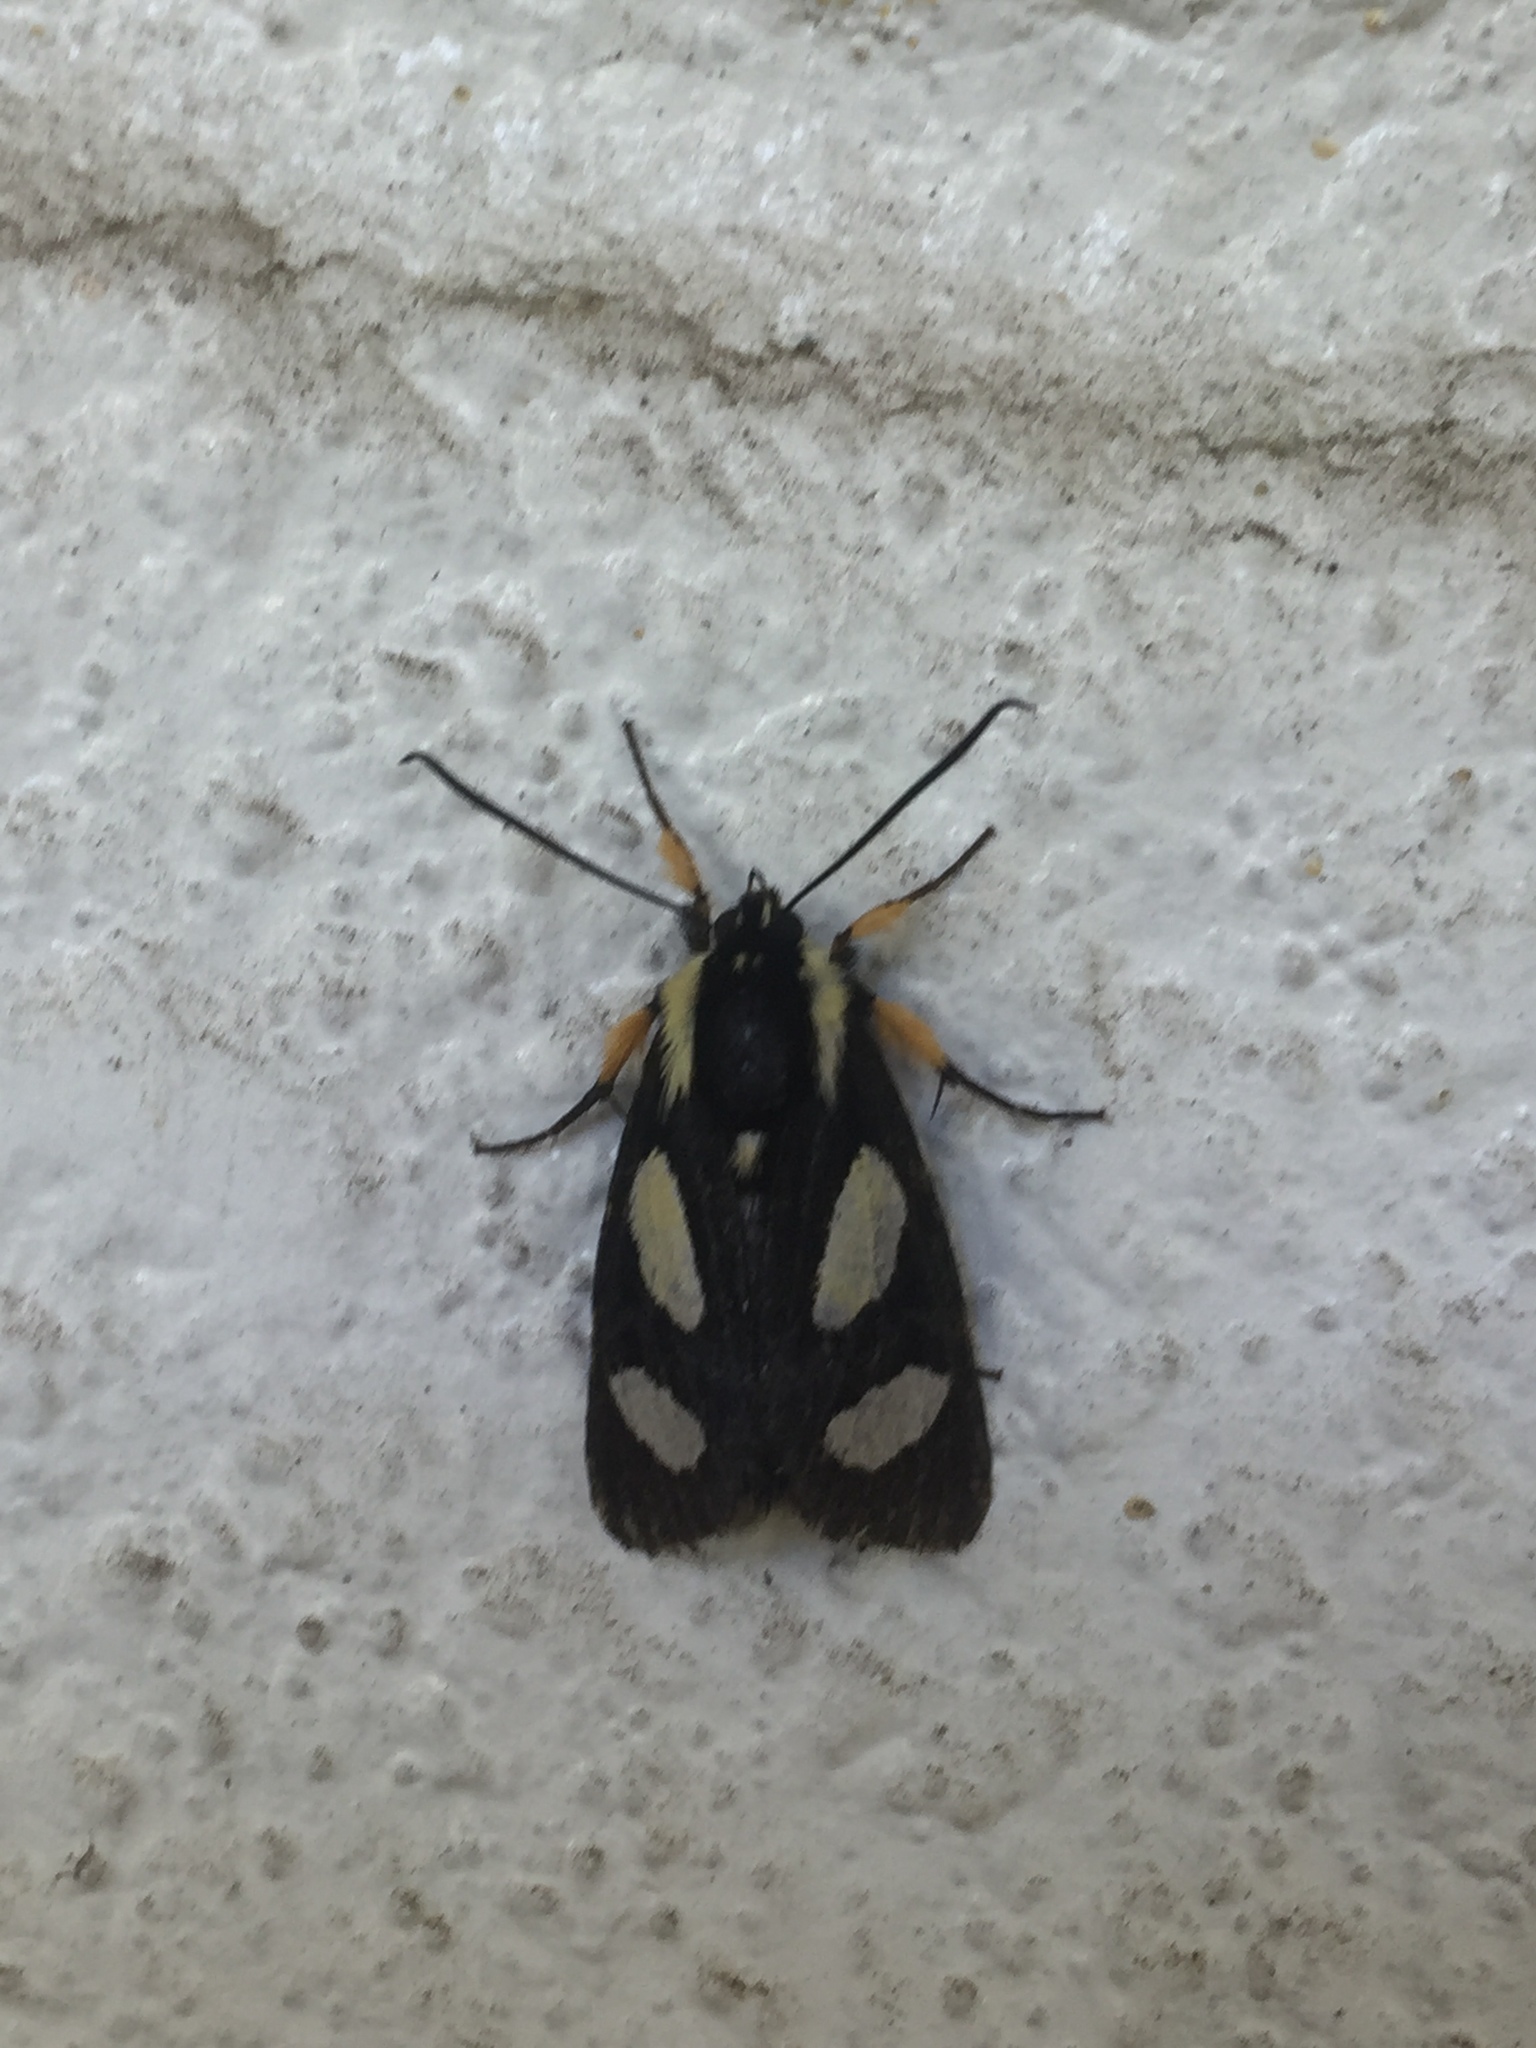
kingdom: Animalia
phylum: Arthropoda
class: Insecta
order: Lepidoptera
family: Noctuidae
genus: Alypia
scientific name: Alypia octomaculata
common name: Eight-spotted forester
